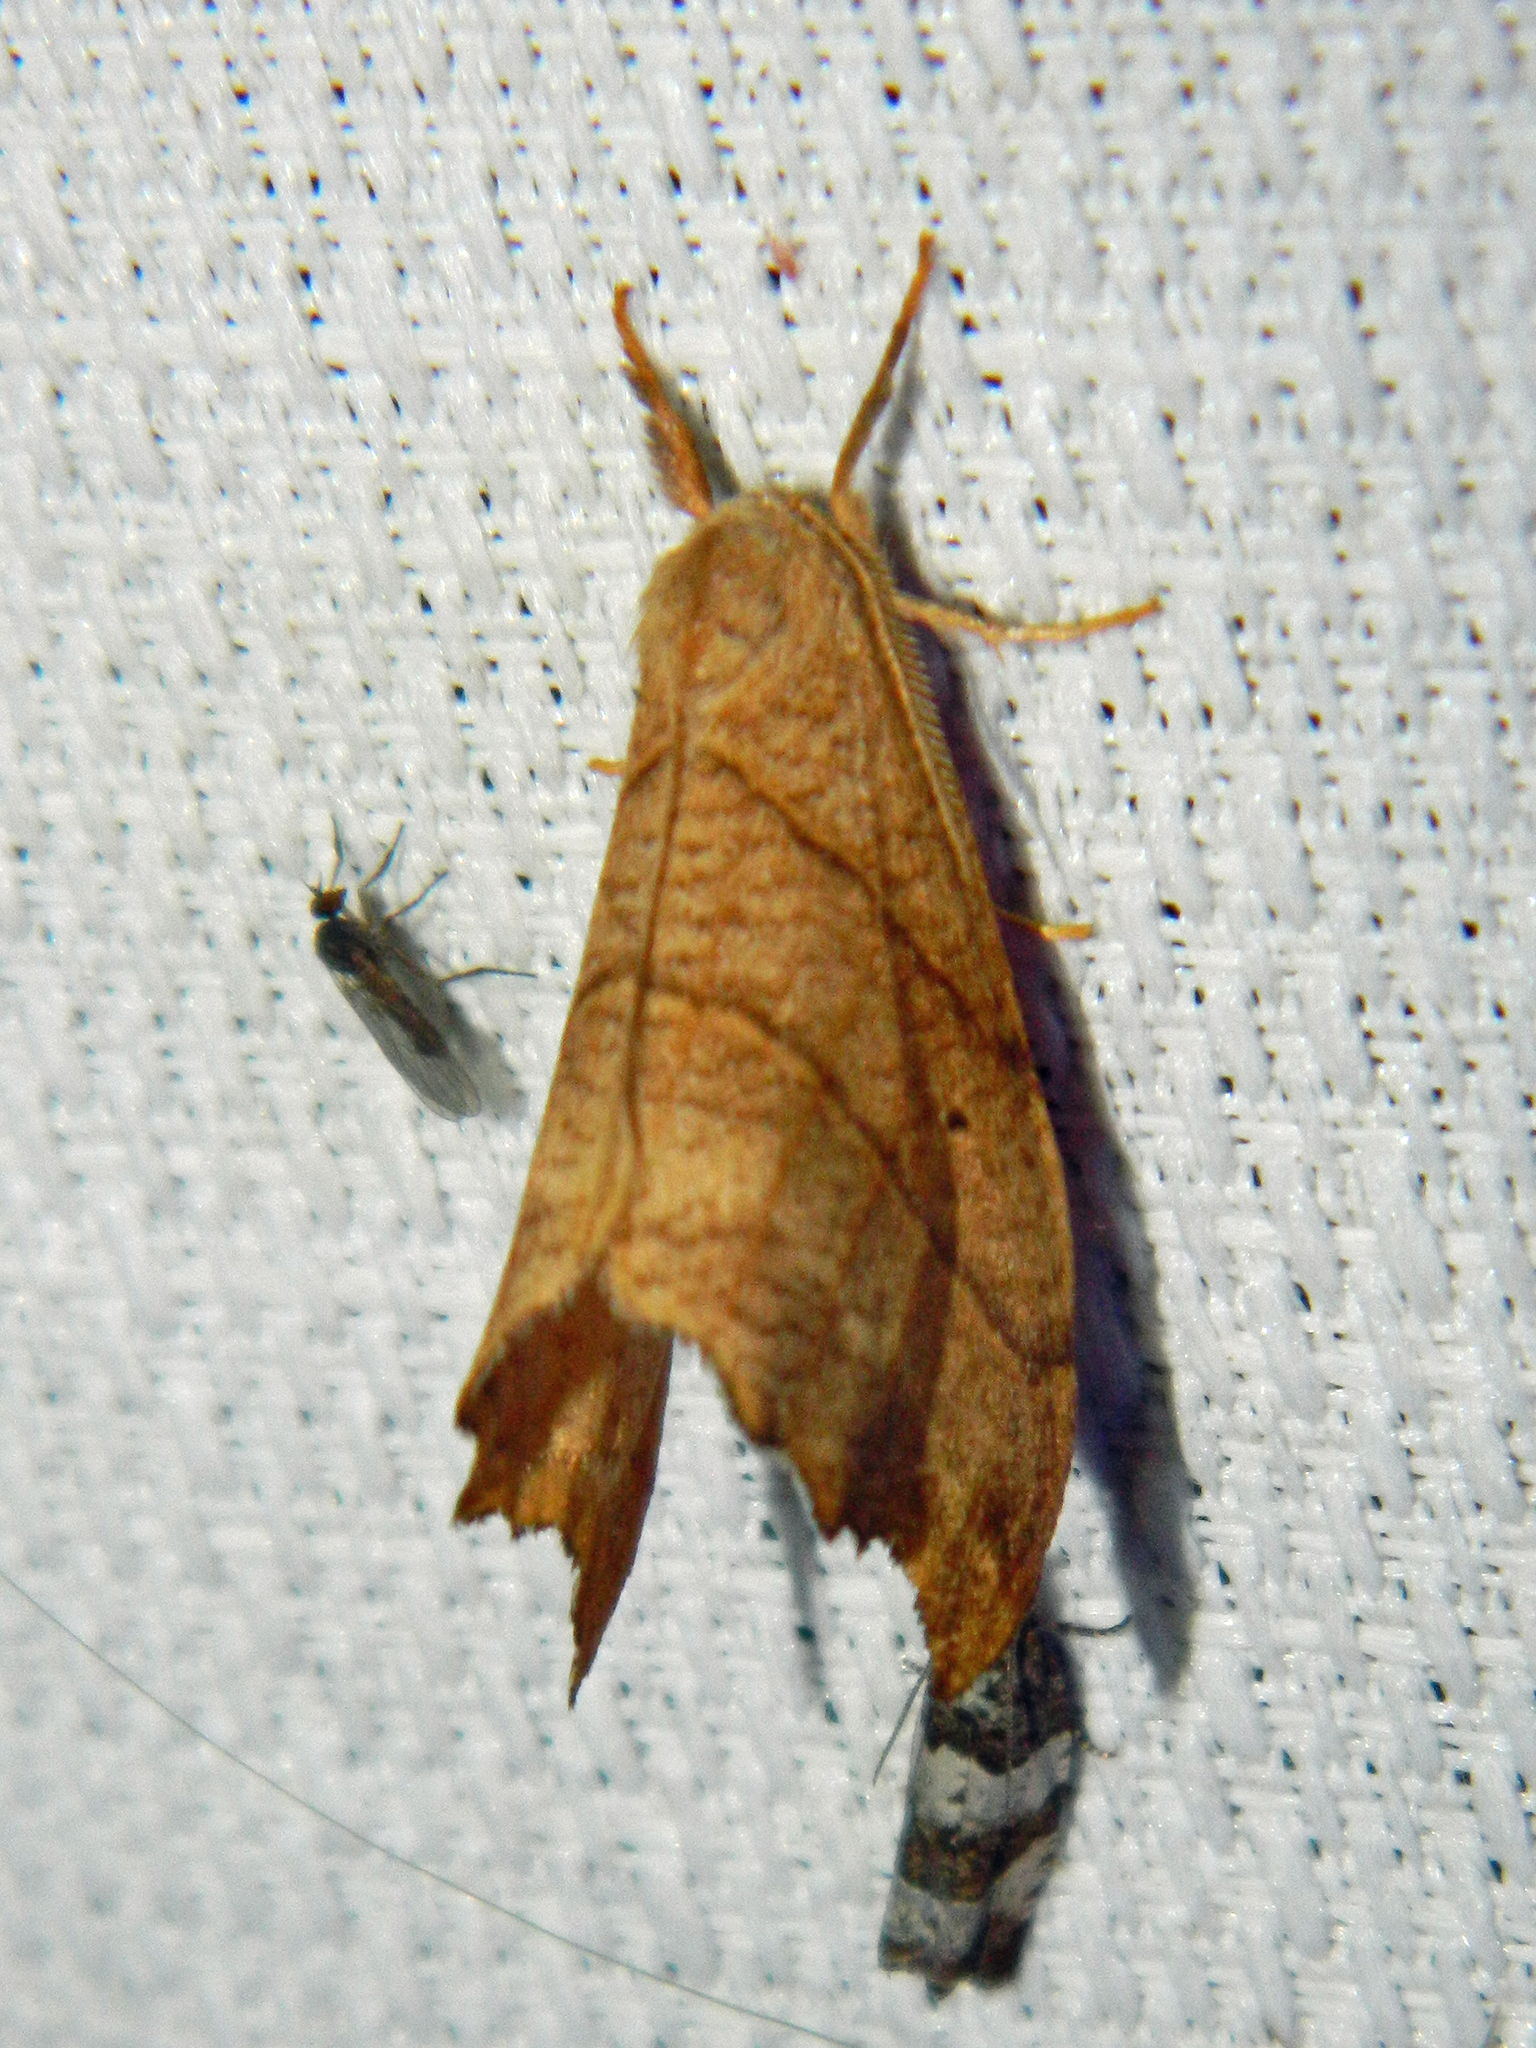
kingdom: Animalia
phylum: Arthropoda
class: Insecta
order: Lepidoptera
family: Drepanidae
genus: Falcaria
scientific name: Falcaria bilineata
